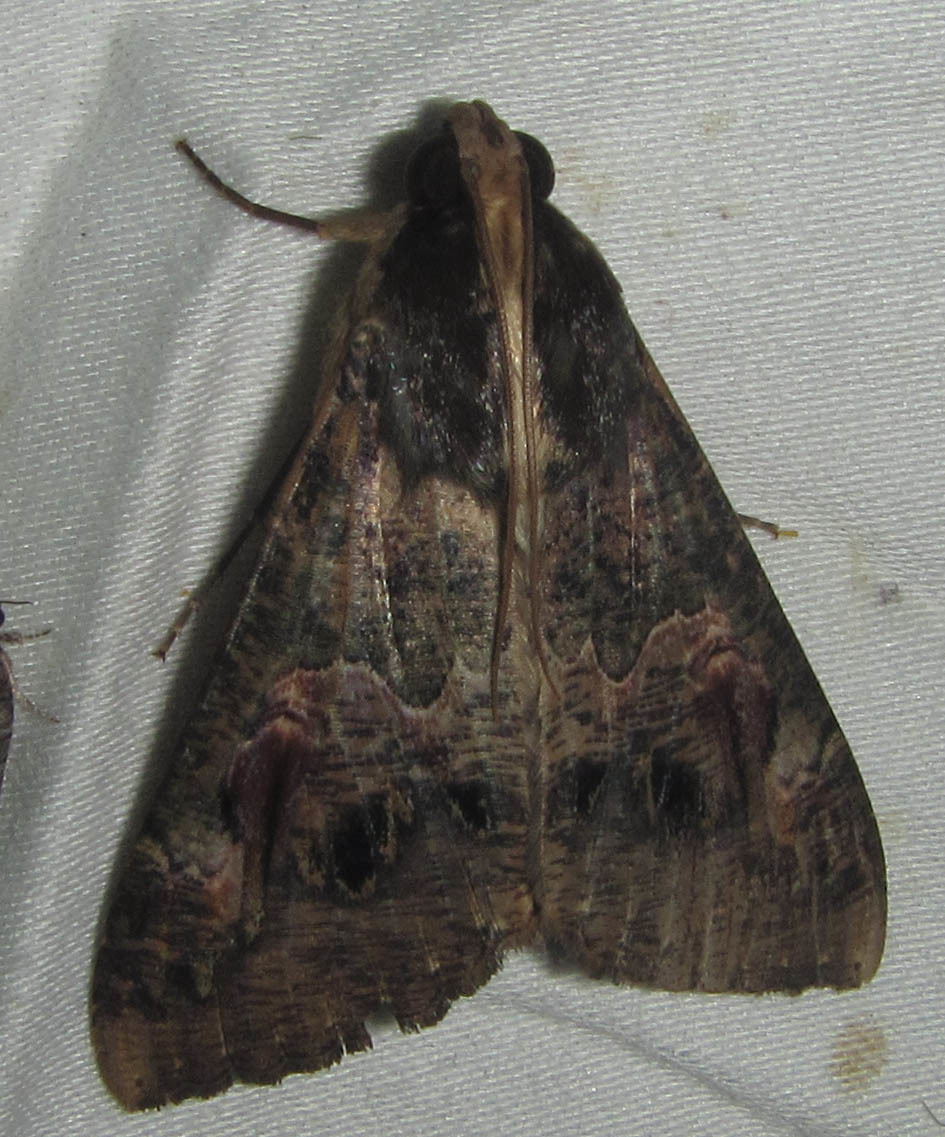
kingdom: Animalia
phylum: Arthropoda
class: Insecta
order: Lepidoptera
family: Erebidae
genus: Sphingomorpha
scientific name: Sphingomorpha chlorea
